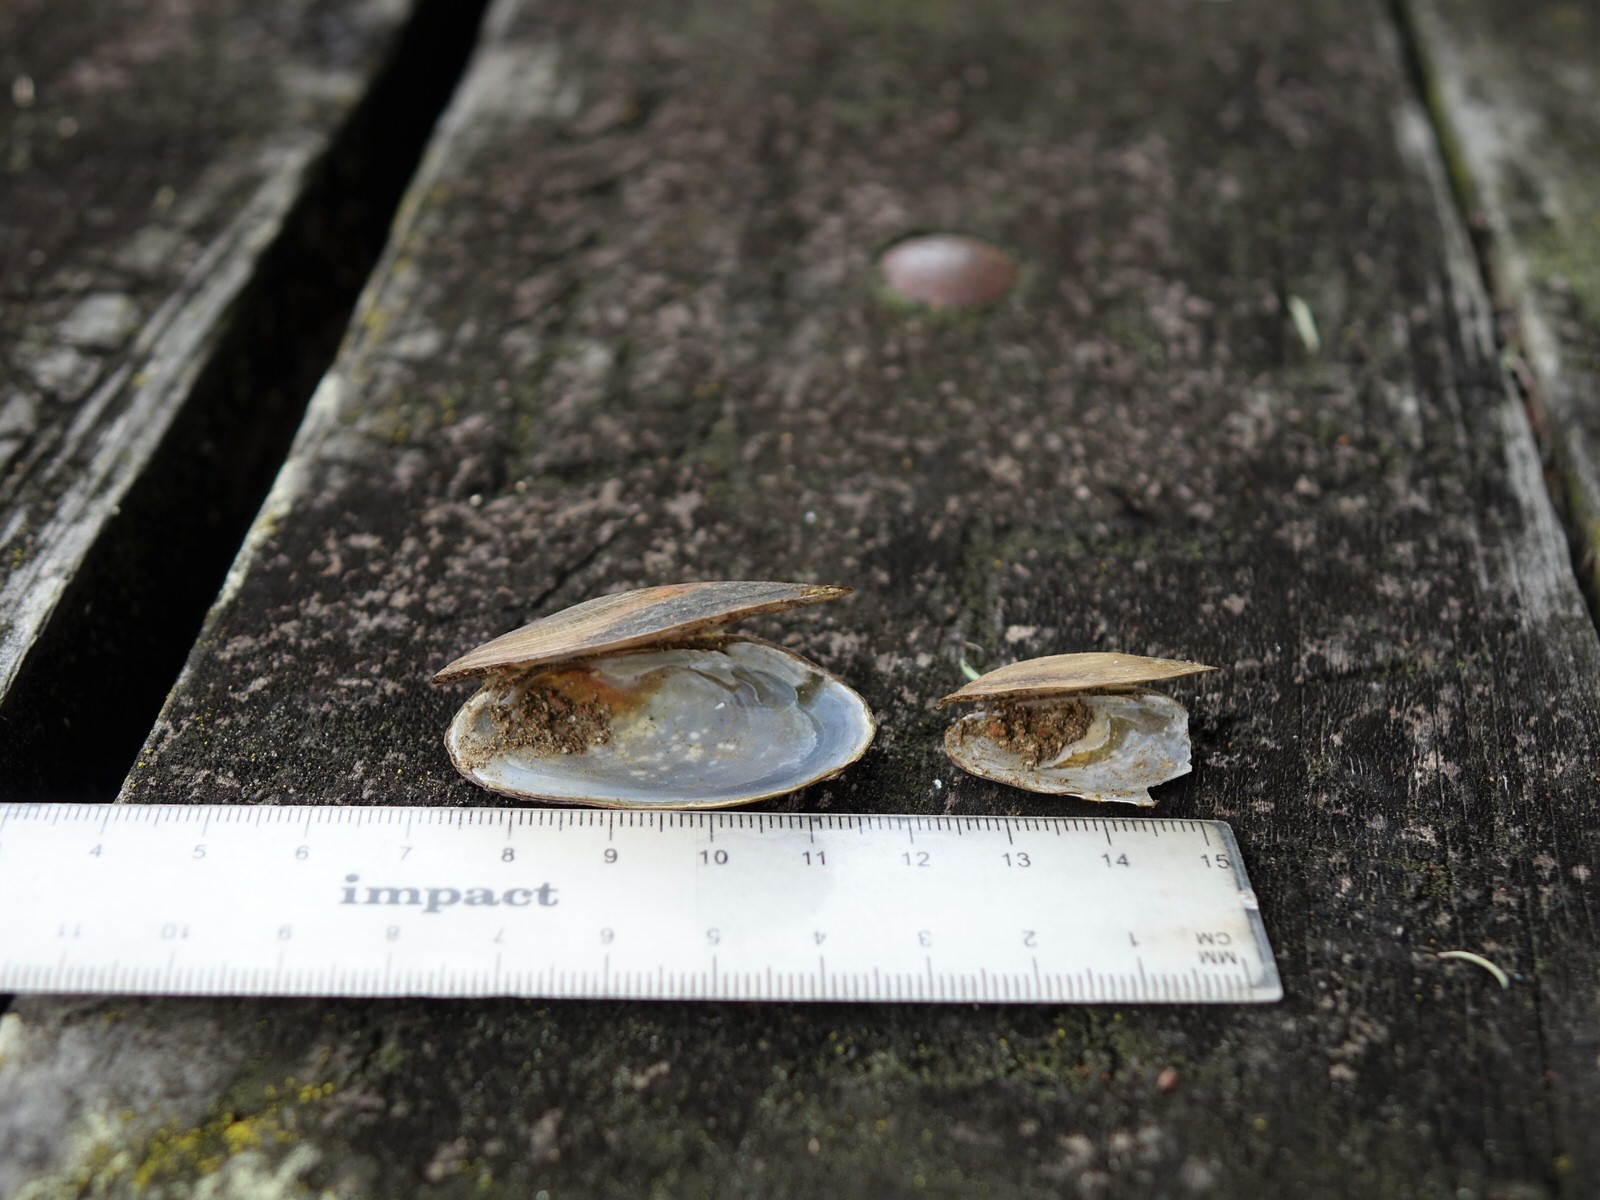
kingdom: Animalia
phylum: Mollusca
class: Bivalvia
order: Unionida
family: Hyriidae
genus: Echyridella
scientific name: Echyridella menziesii
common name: New zealand freshwater mussel
